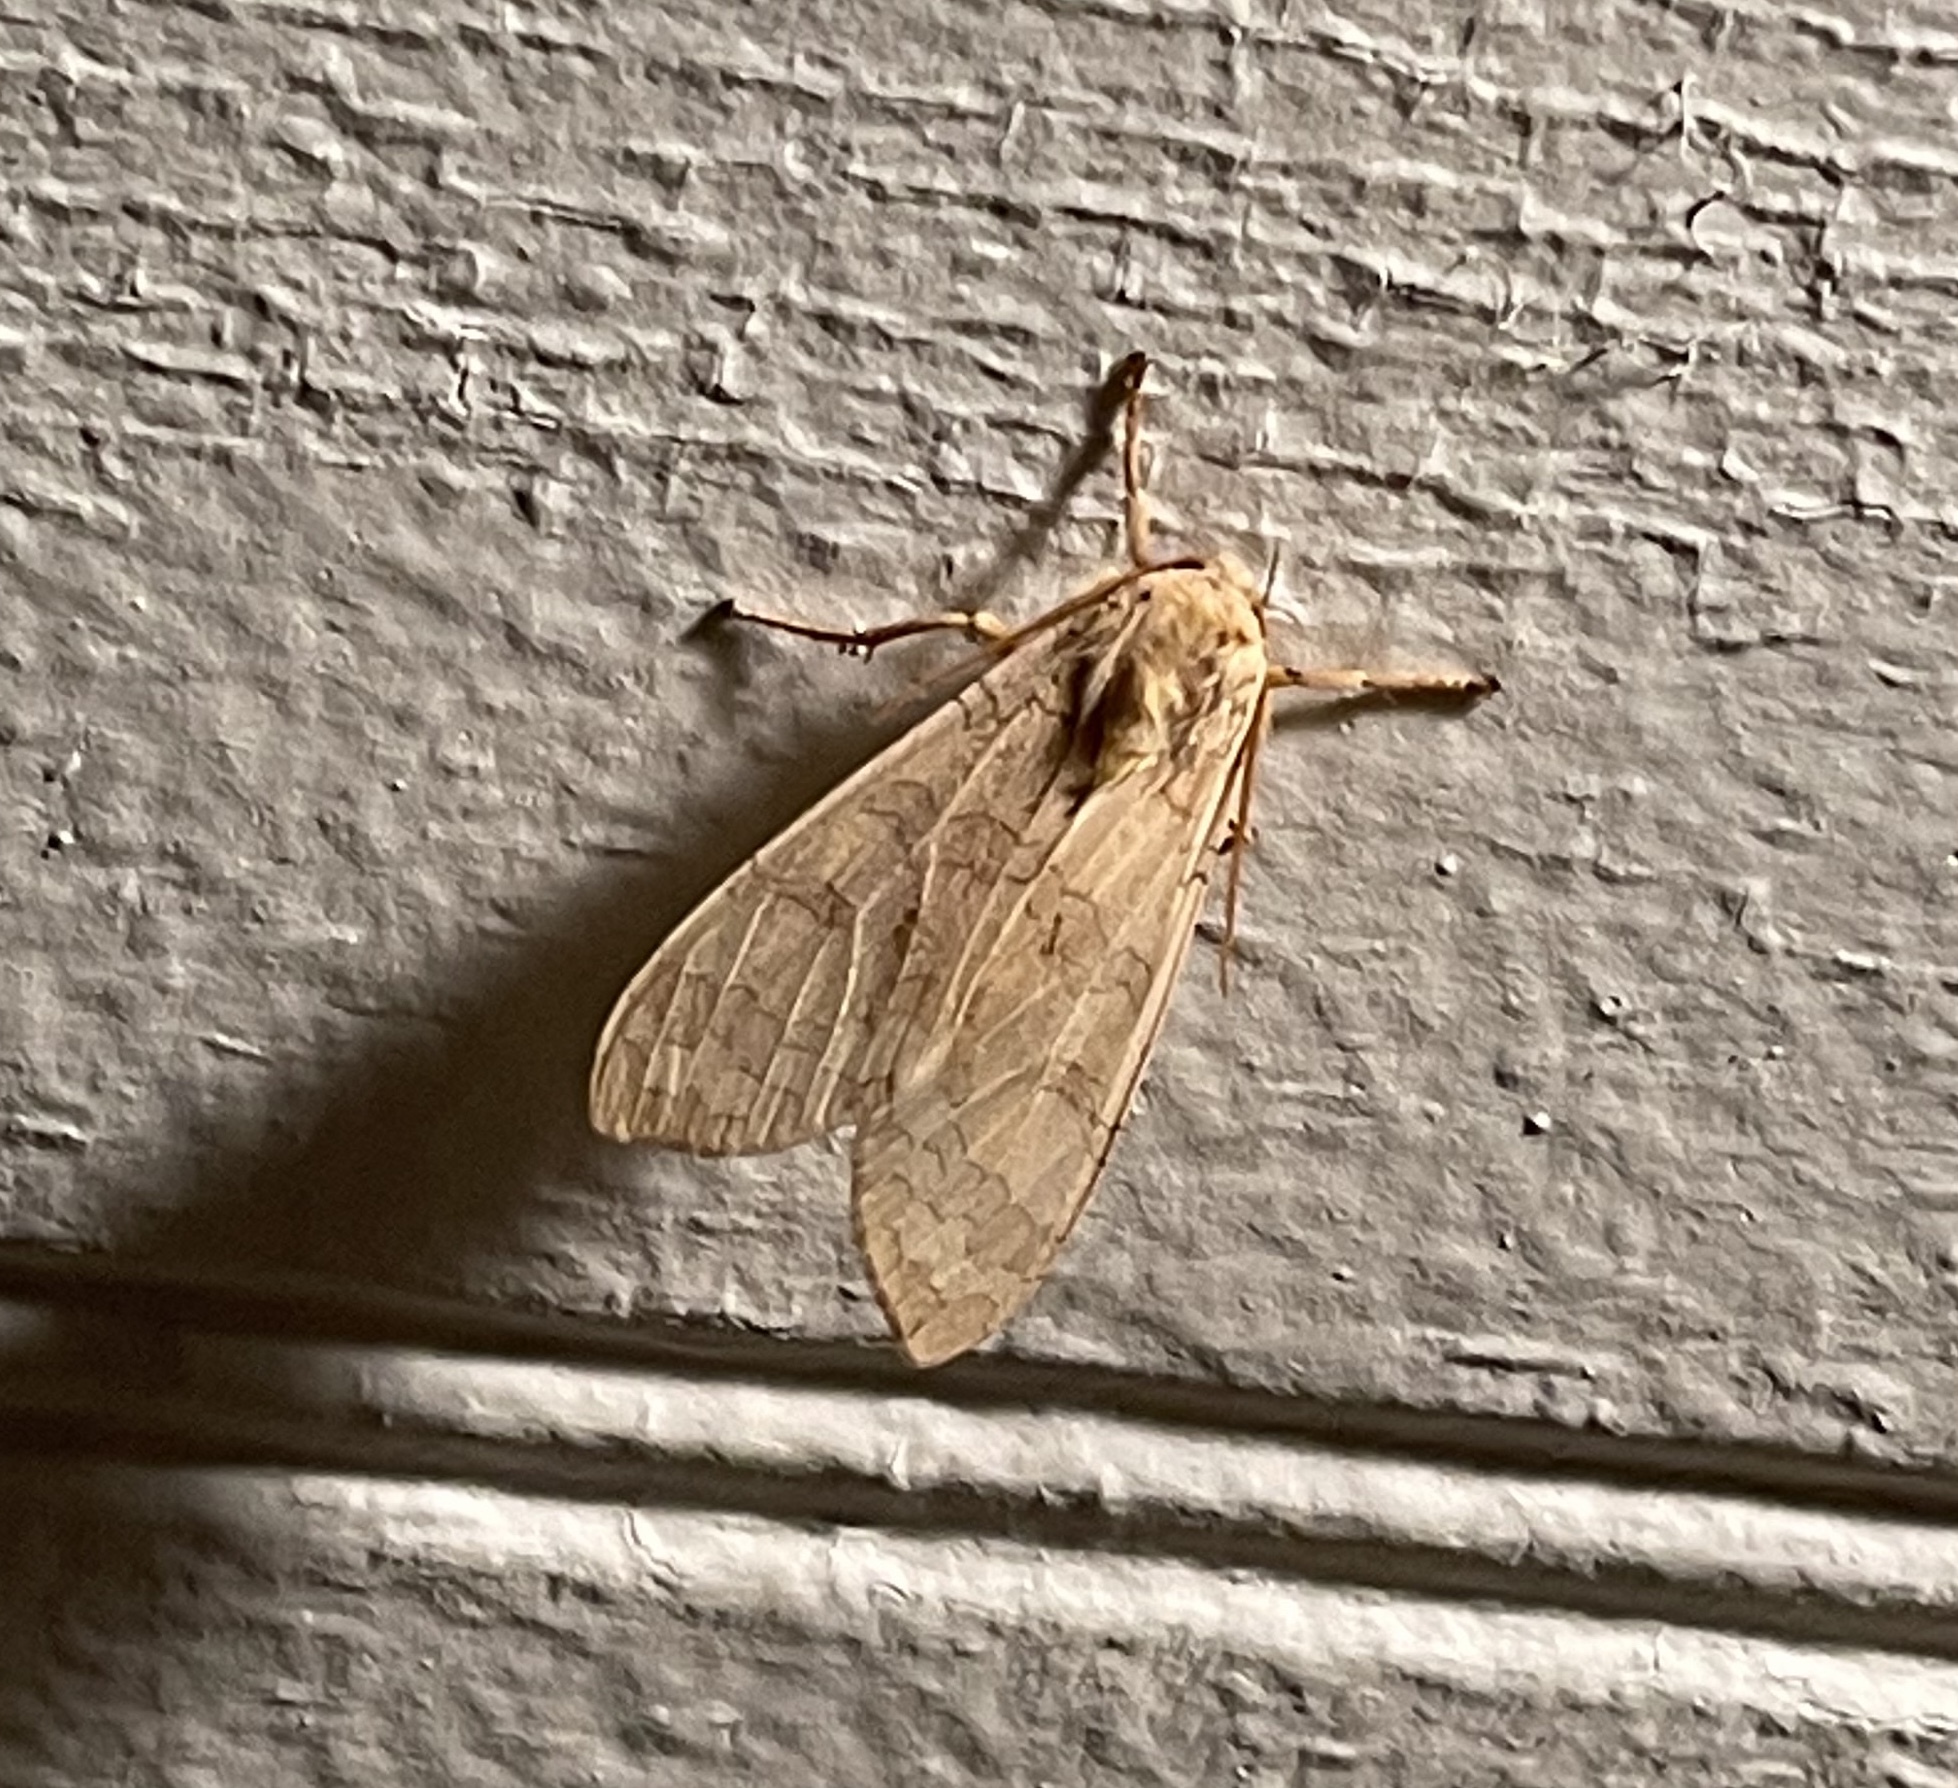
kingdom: Animalia
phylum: Arthropoda
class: Insecta
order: Lepidoptera
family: Erebidae
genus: Halysidota
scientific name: Halysidota
